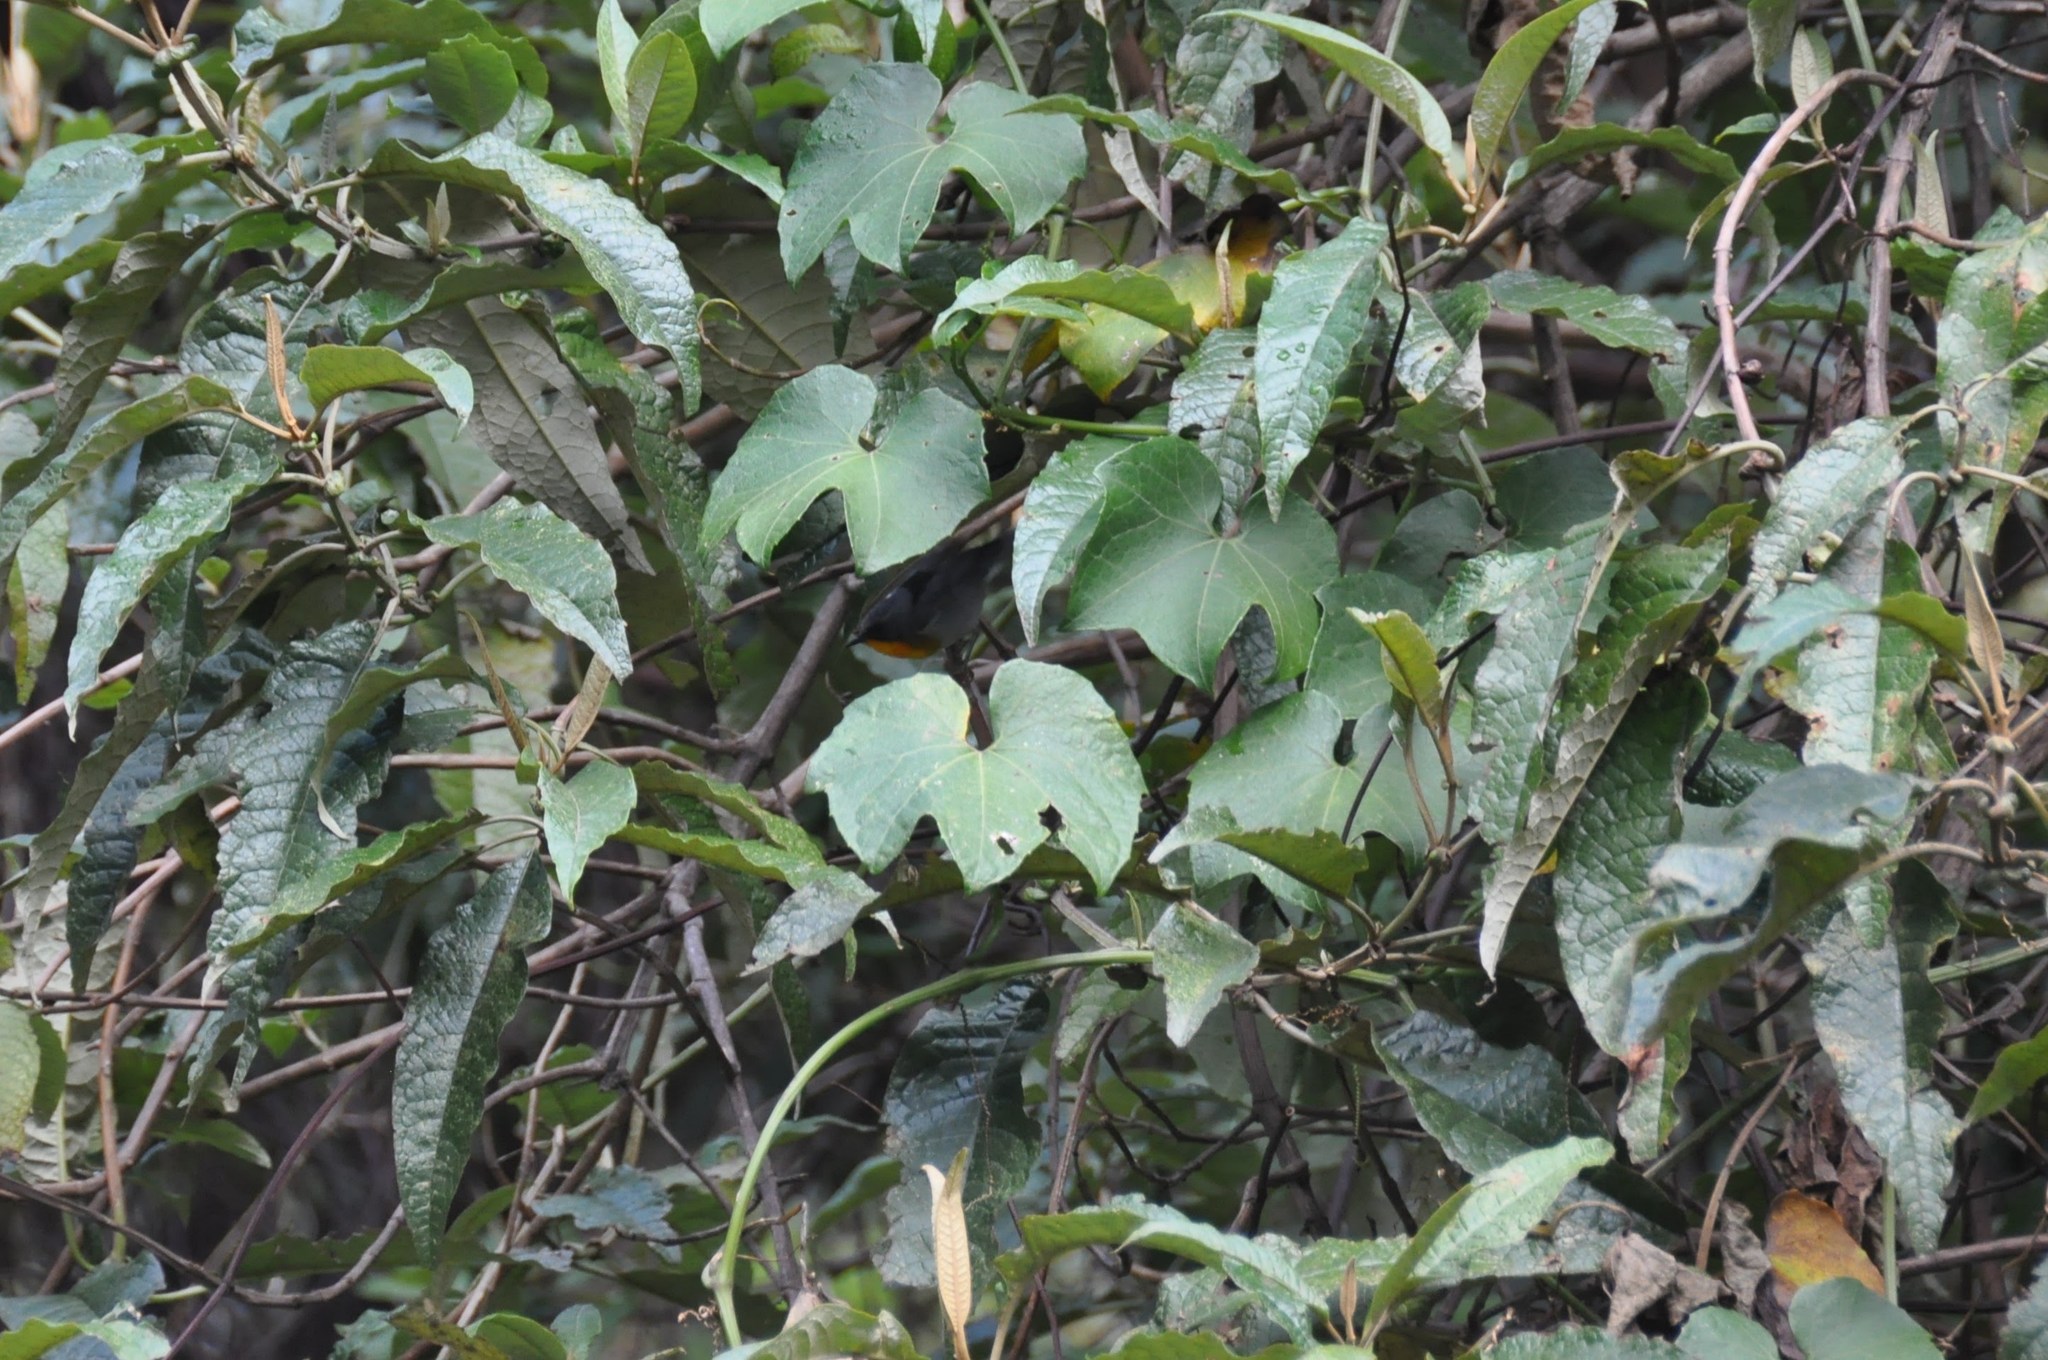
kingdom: Animalia
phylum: Chordata
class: Aves
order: Passeriformes
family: Parulidae
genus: Oreothlypis
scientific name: Oreothlypis gutturalis
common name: Flame-throated warbler
